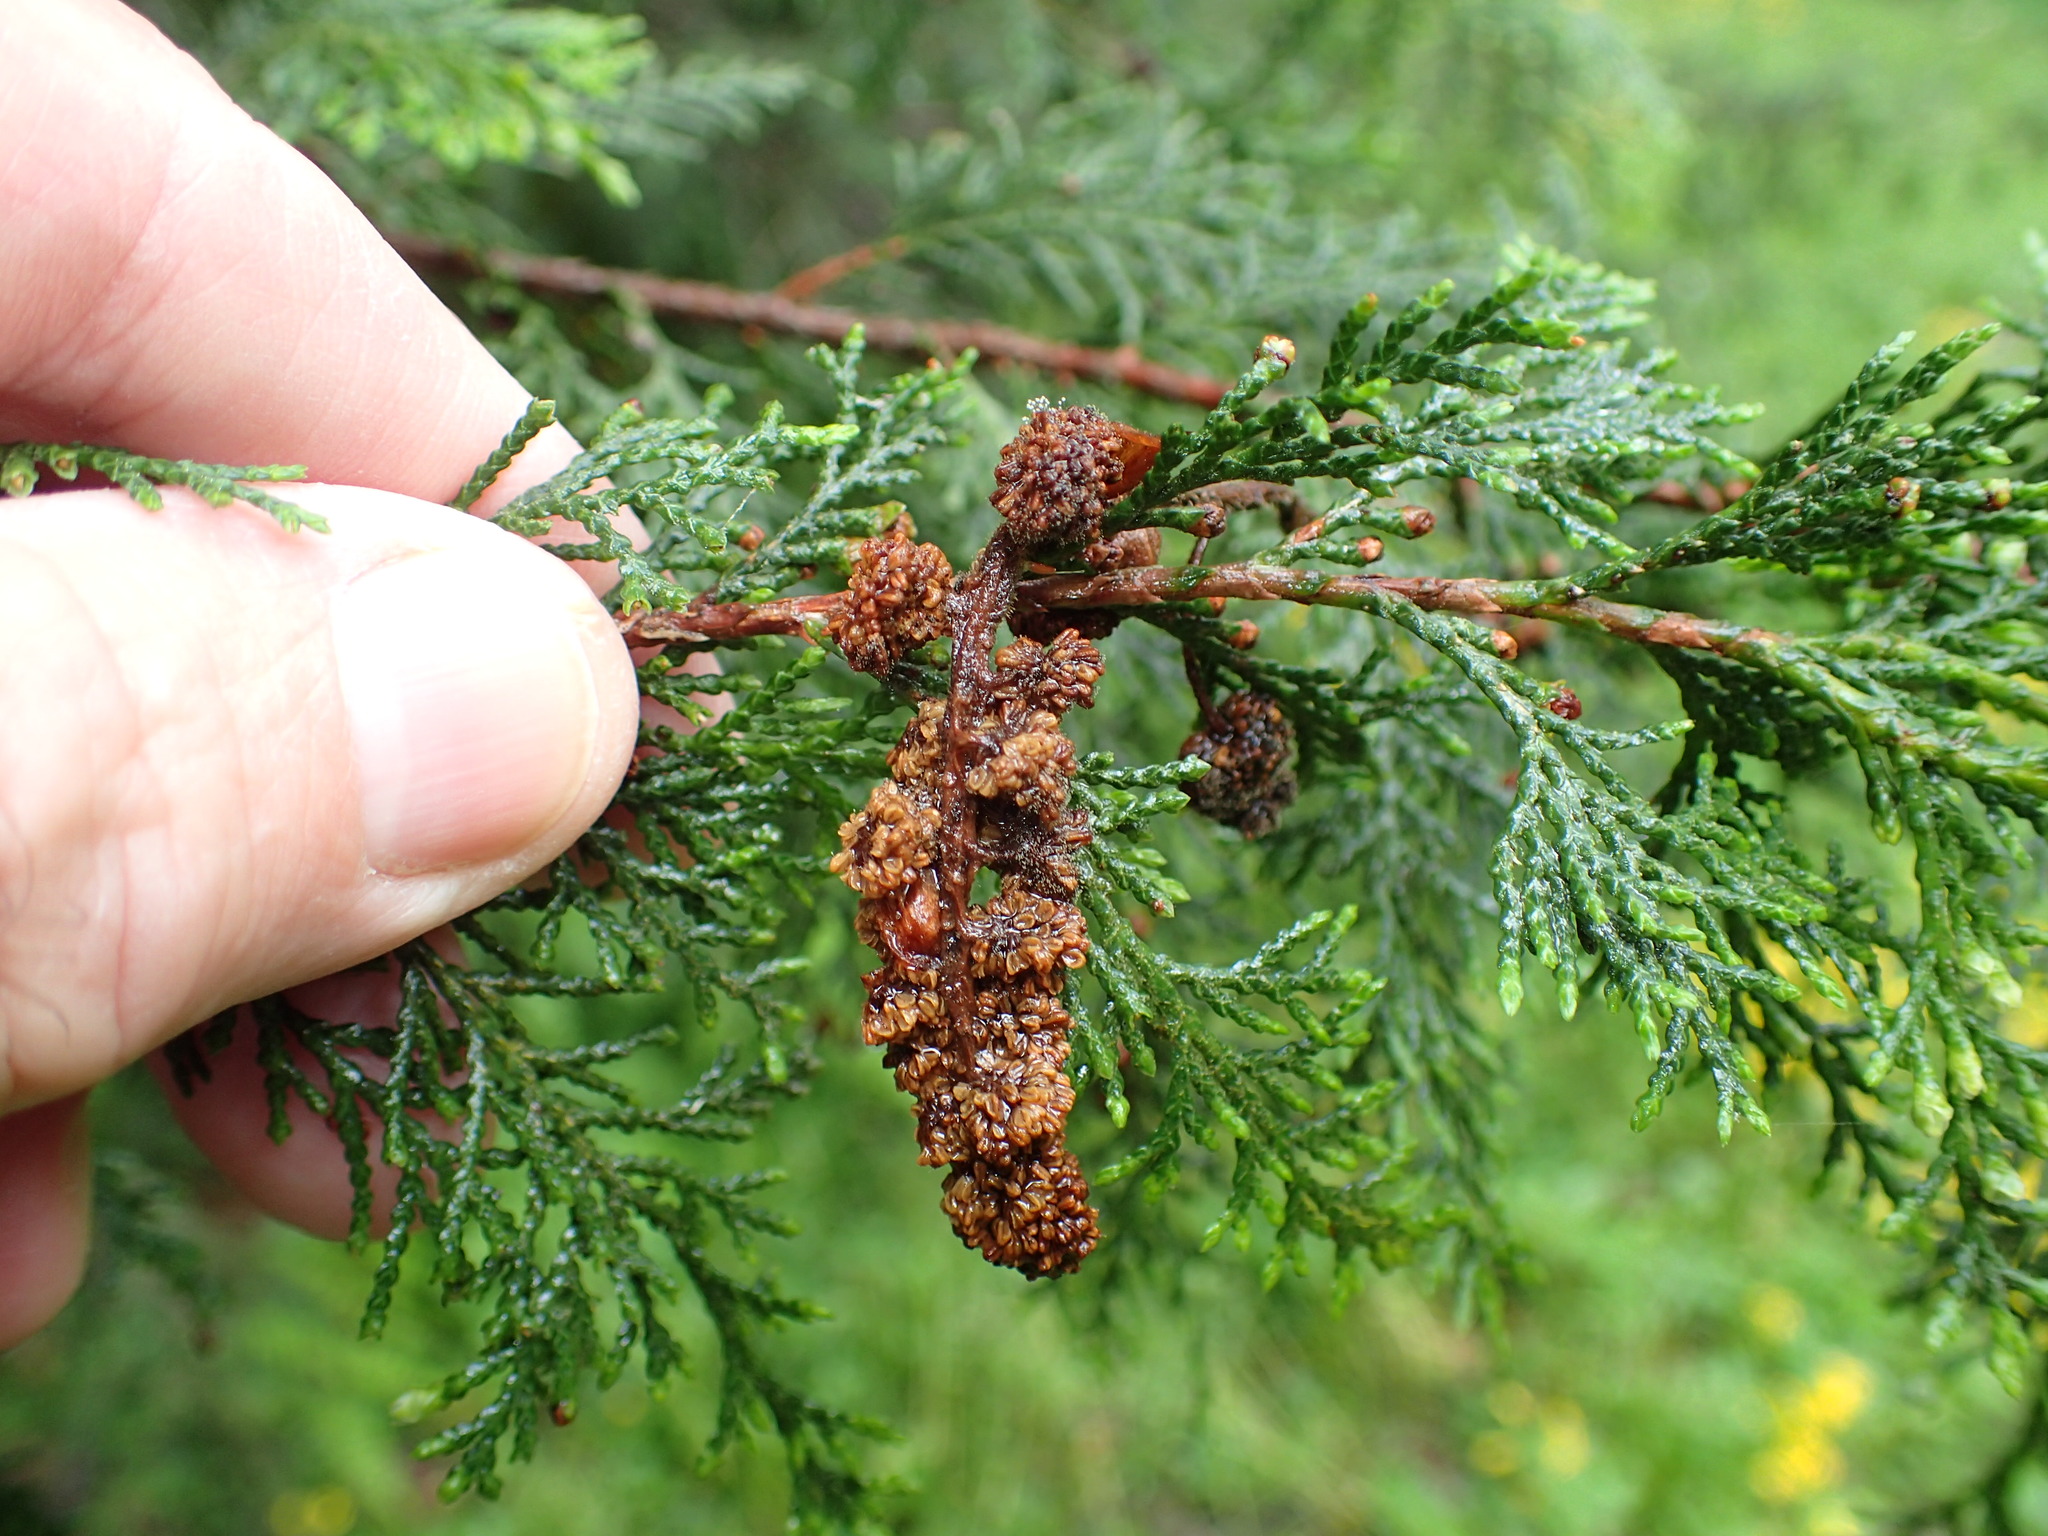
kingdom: Plantae
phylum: Tracheophyta
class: Pinopsida
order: Pinales
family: Cupressaceae
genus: Juniperus
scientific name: Juniperus virginiana
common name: Red juniper
